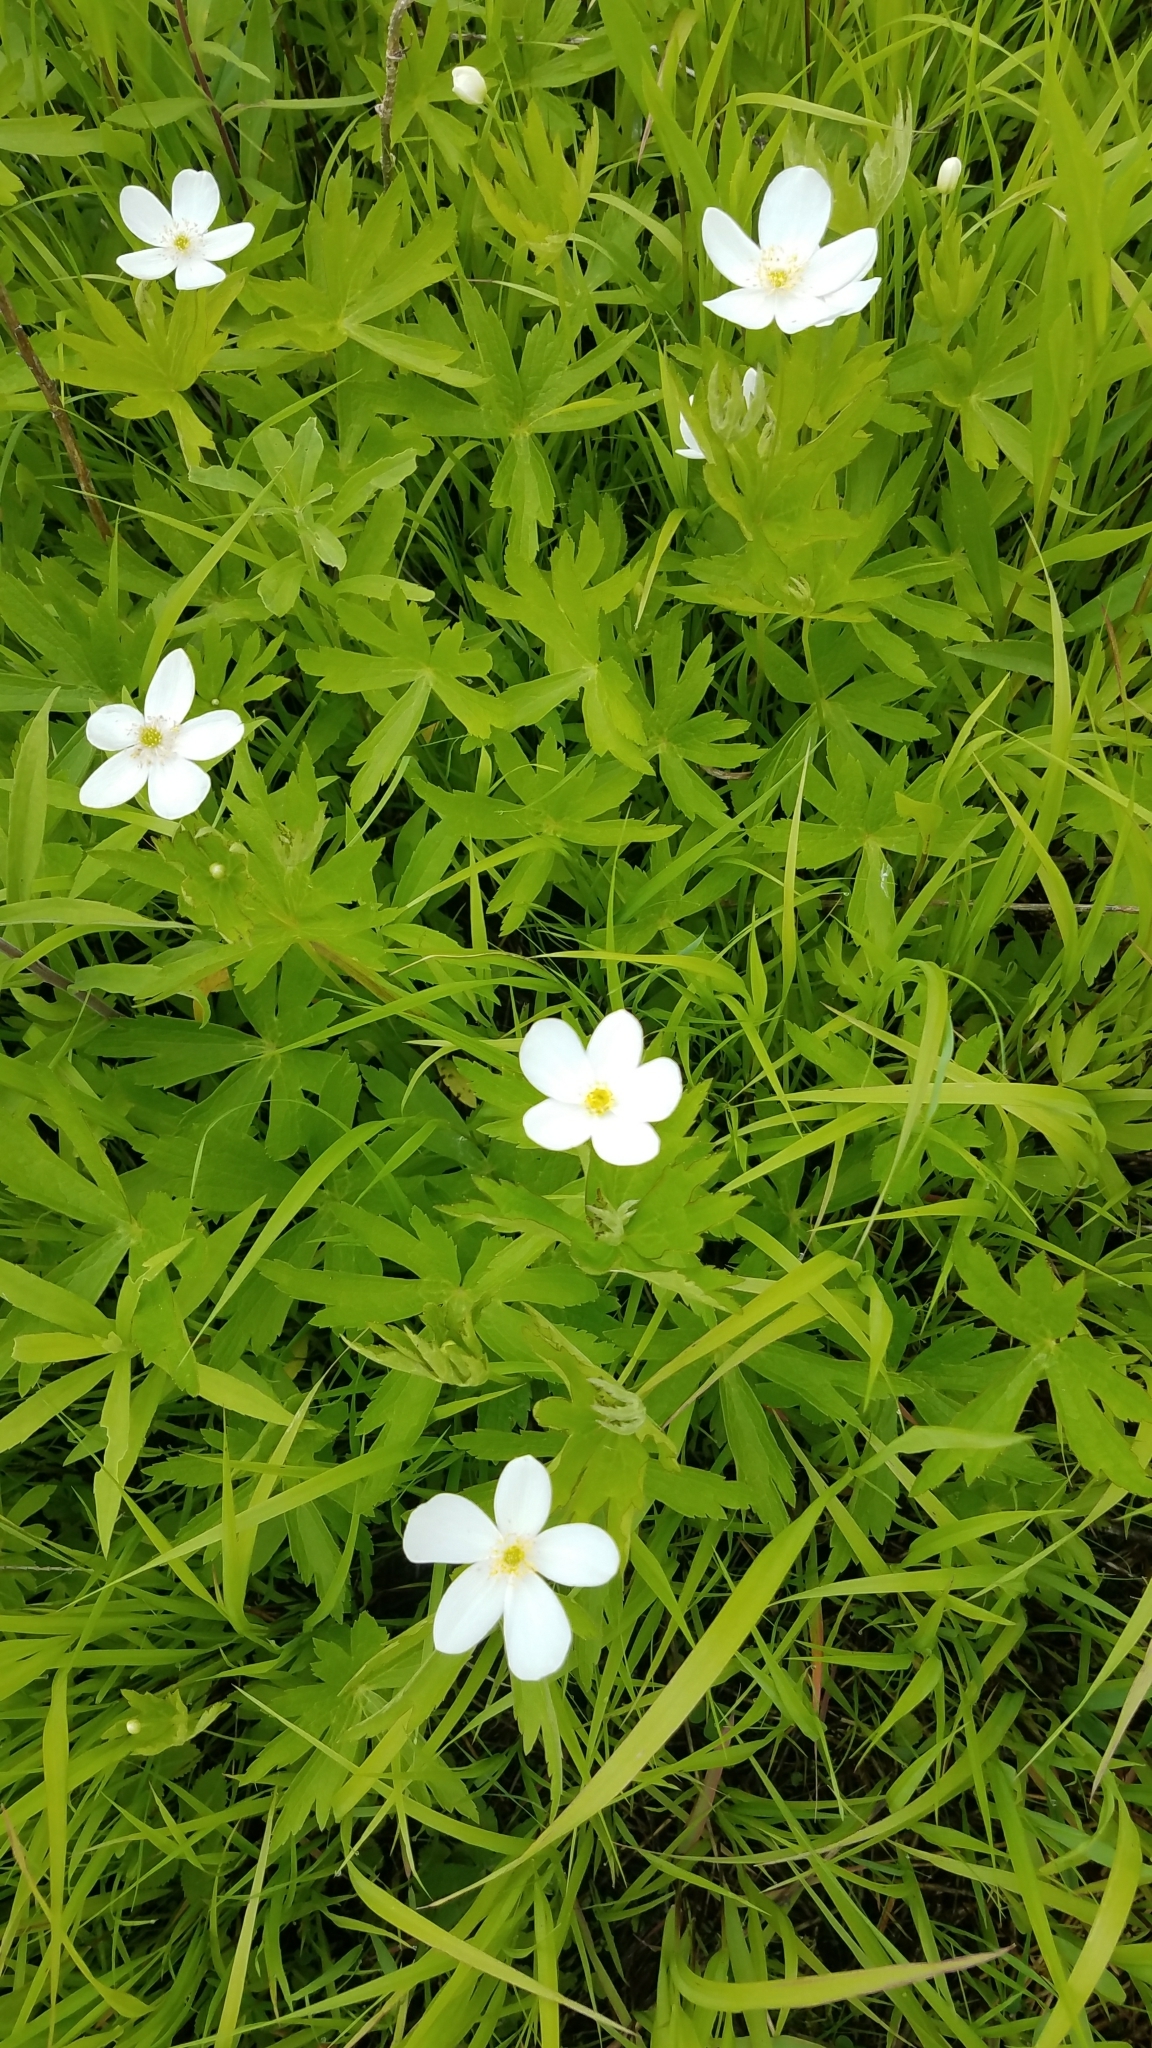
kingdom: Plantae
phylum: Tracheophyta
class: Magnoliopsida
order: Ranunculales
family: Ranunculaceae
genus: Anemonastrum
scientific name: Anemonastrum canadense
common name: Canada anemone
